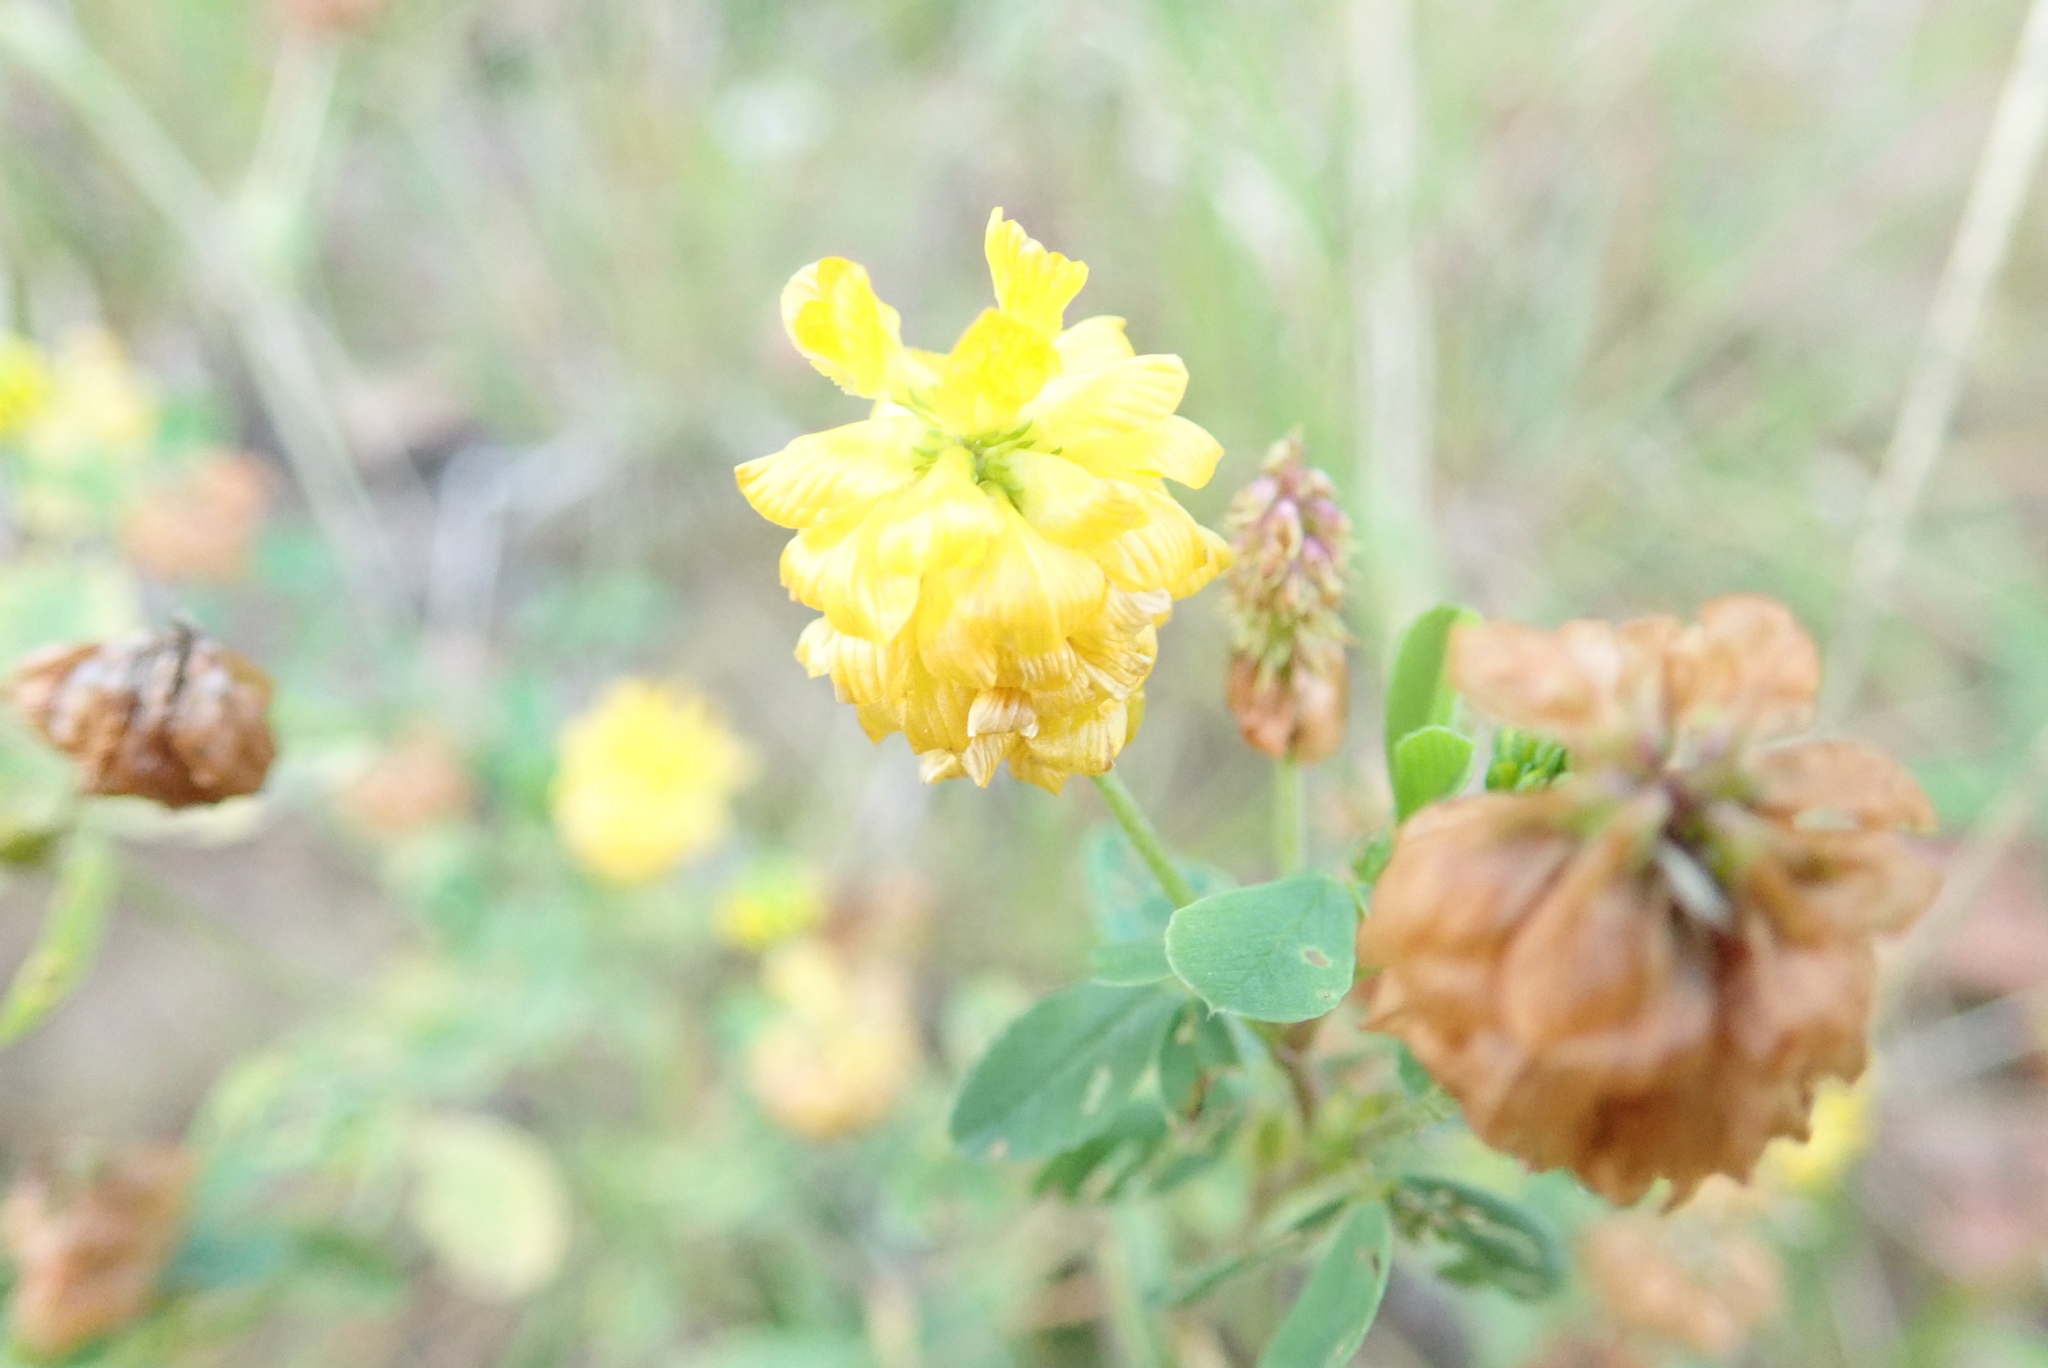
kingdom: Plantae
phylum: Tracheophyta
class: Magnoliopsida
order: Fabales
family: Fabaceae
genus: Trifolium
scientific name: Trifolium aureum
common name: Golden clover
